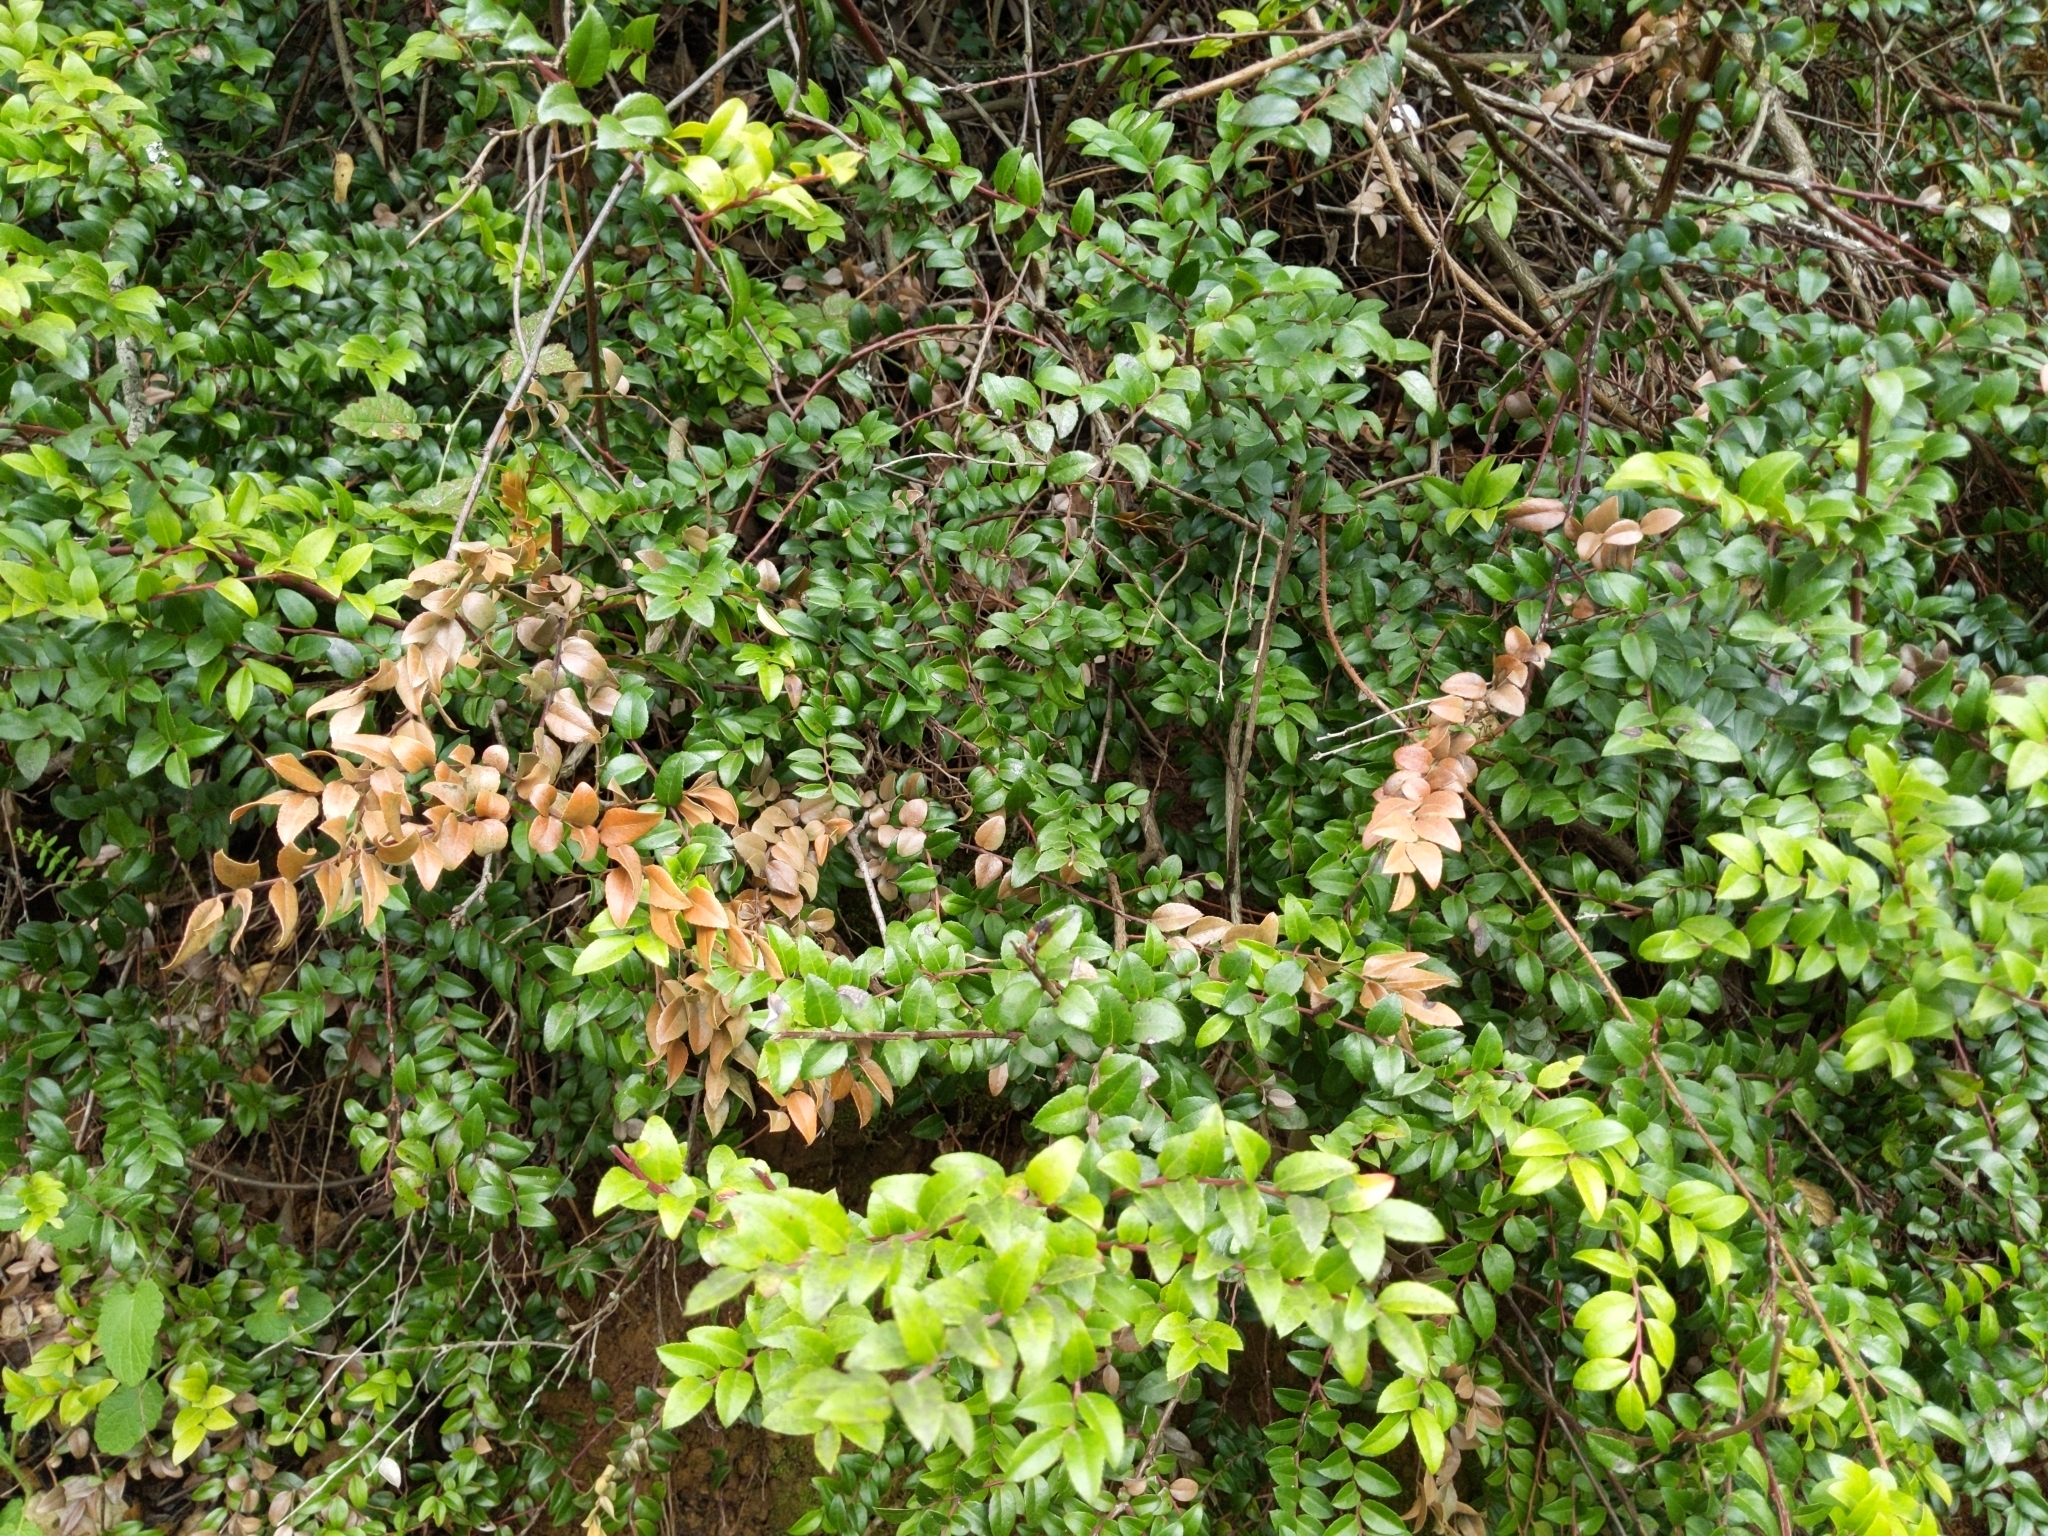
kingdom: Plantae
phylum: Tracheophyta
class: Magnoliopsida
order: Ericales
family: Ericaceae
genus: Vaccinium
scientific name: Vaccinium ovatum
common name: California-huckleberry
